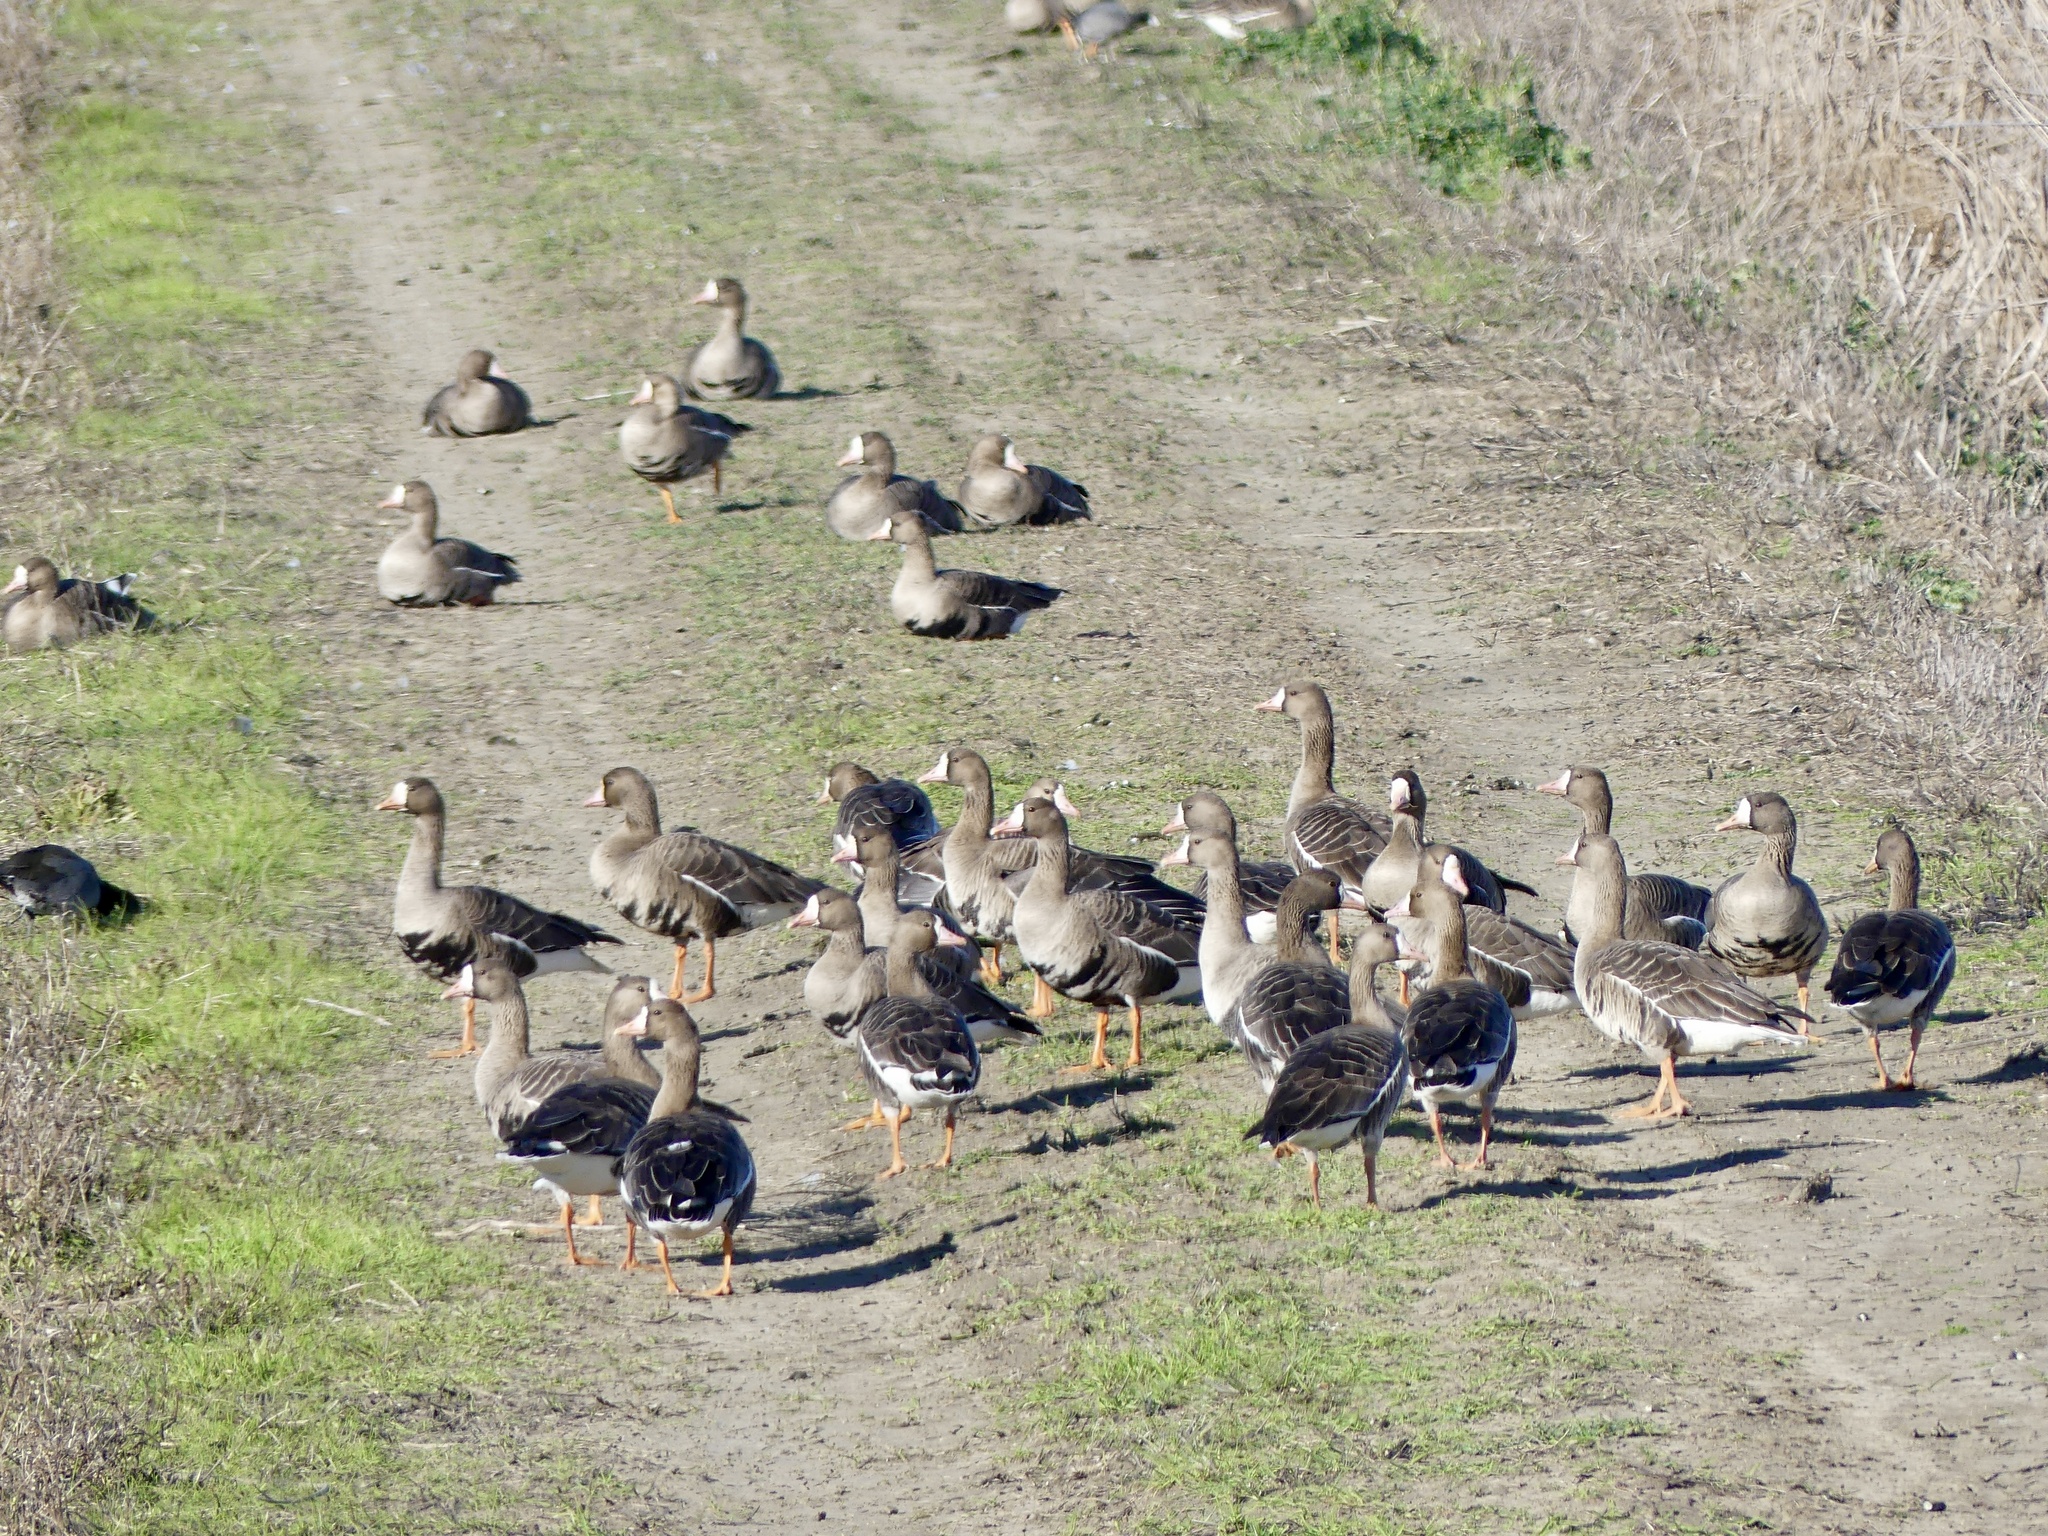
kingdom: Animalia
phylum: Chordata
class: Aves
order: Anseriformes
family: Anatidae
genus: Anser
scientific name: Anser albifrons
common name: Greater white-fronted goose
